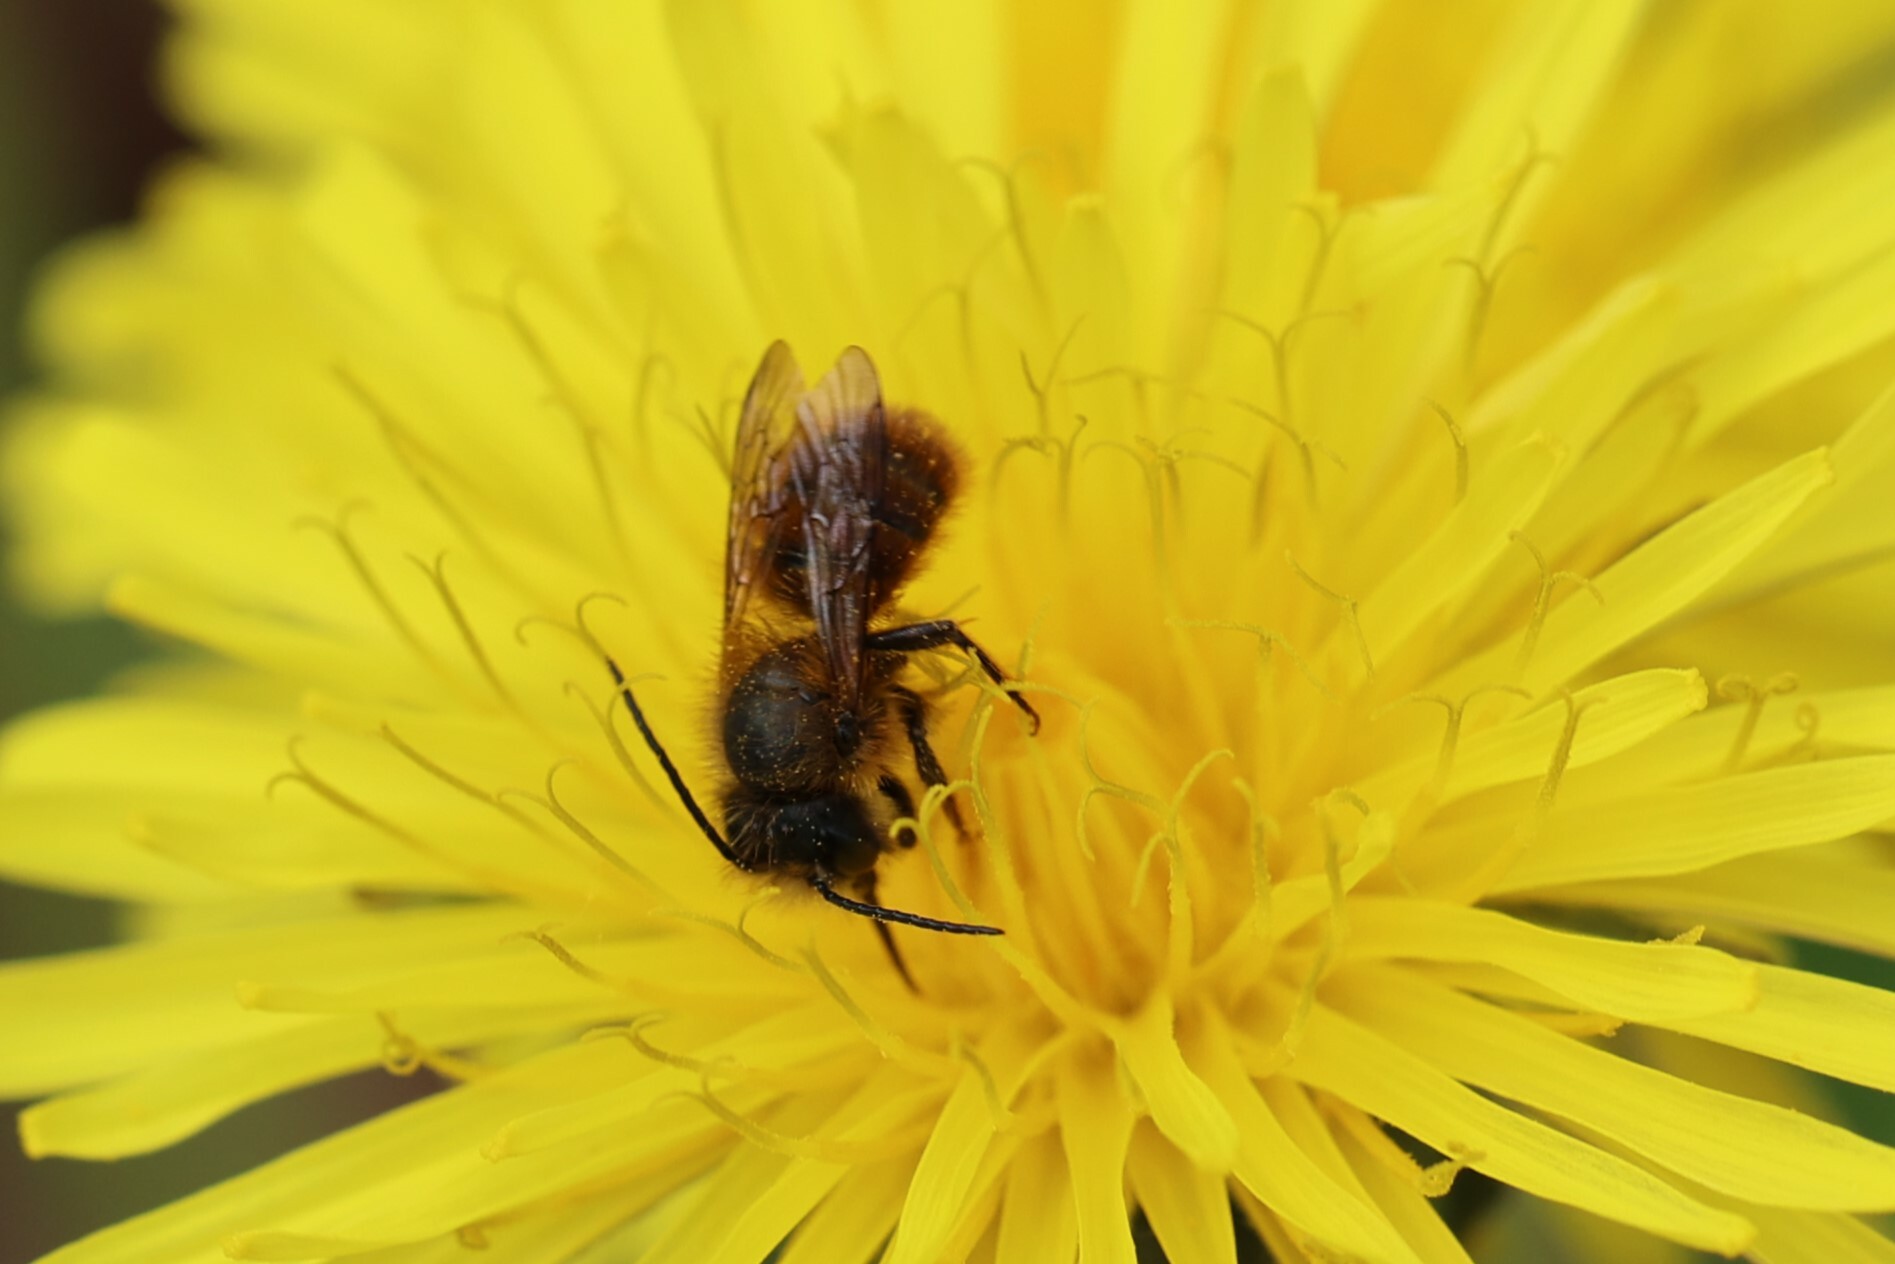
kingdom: Animalia
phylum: Arthropoda
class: Insecta
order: Hymenoptera
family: Megachilidae
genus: Osmia
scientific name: Osmia bicornis
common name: Red mason bee
